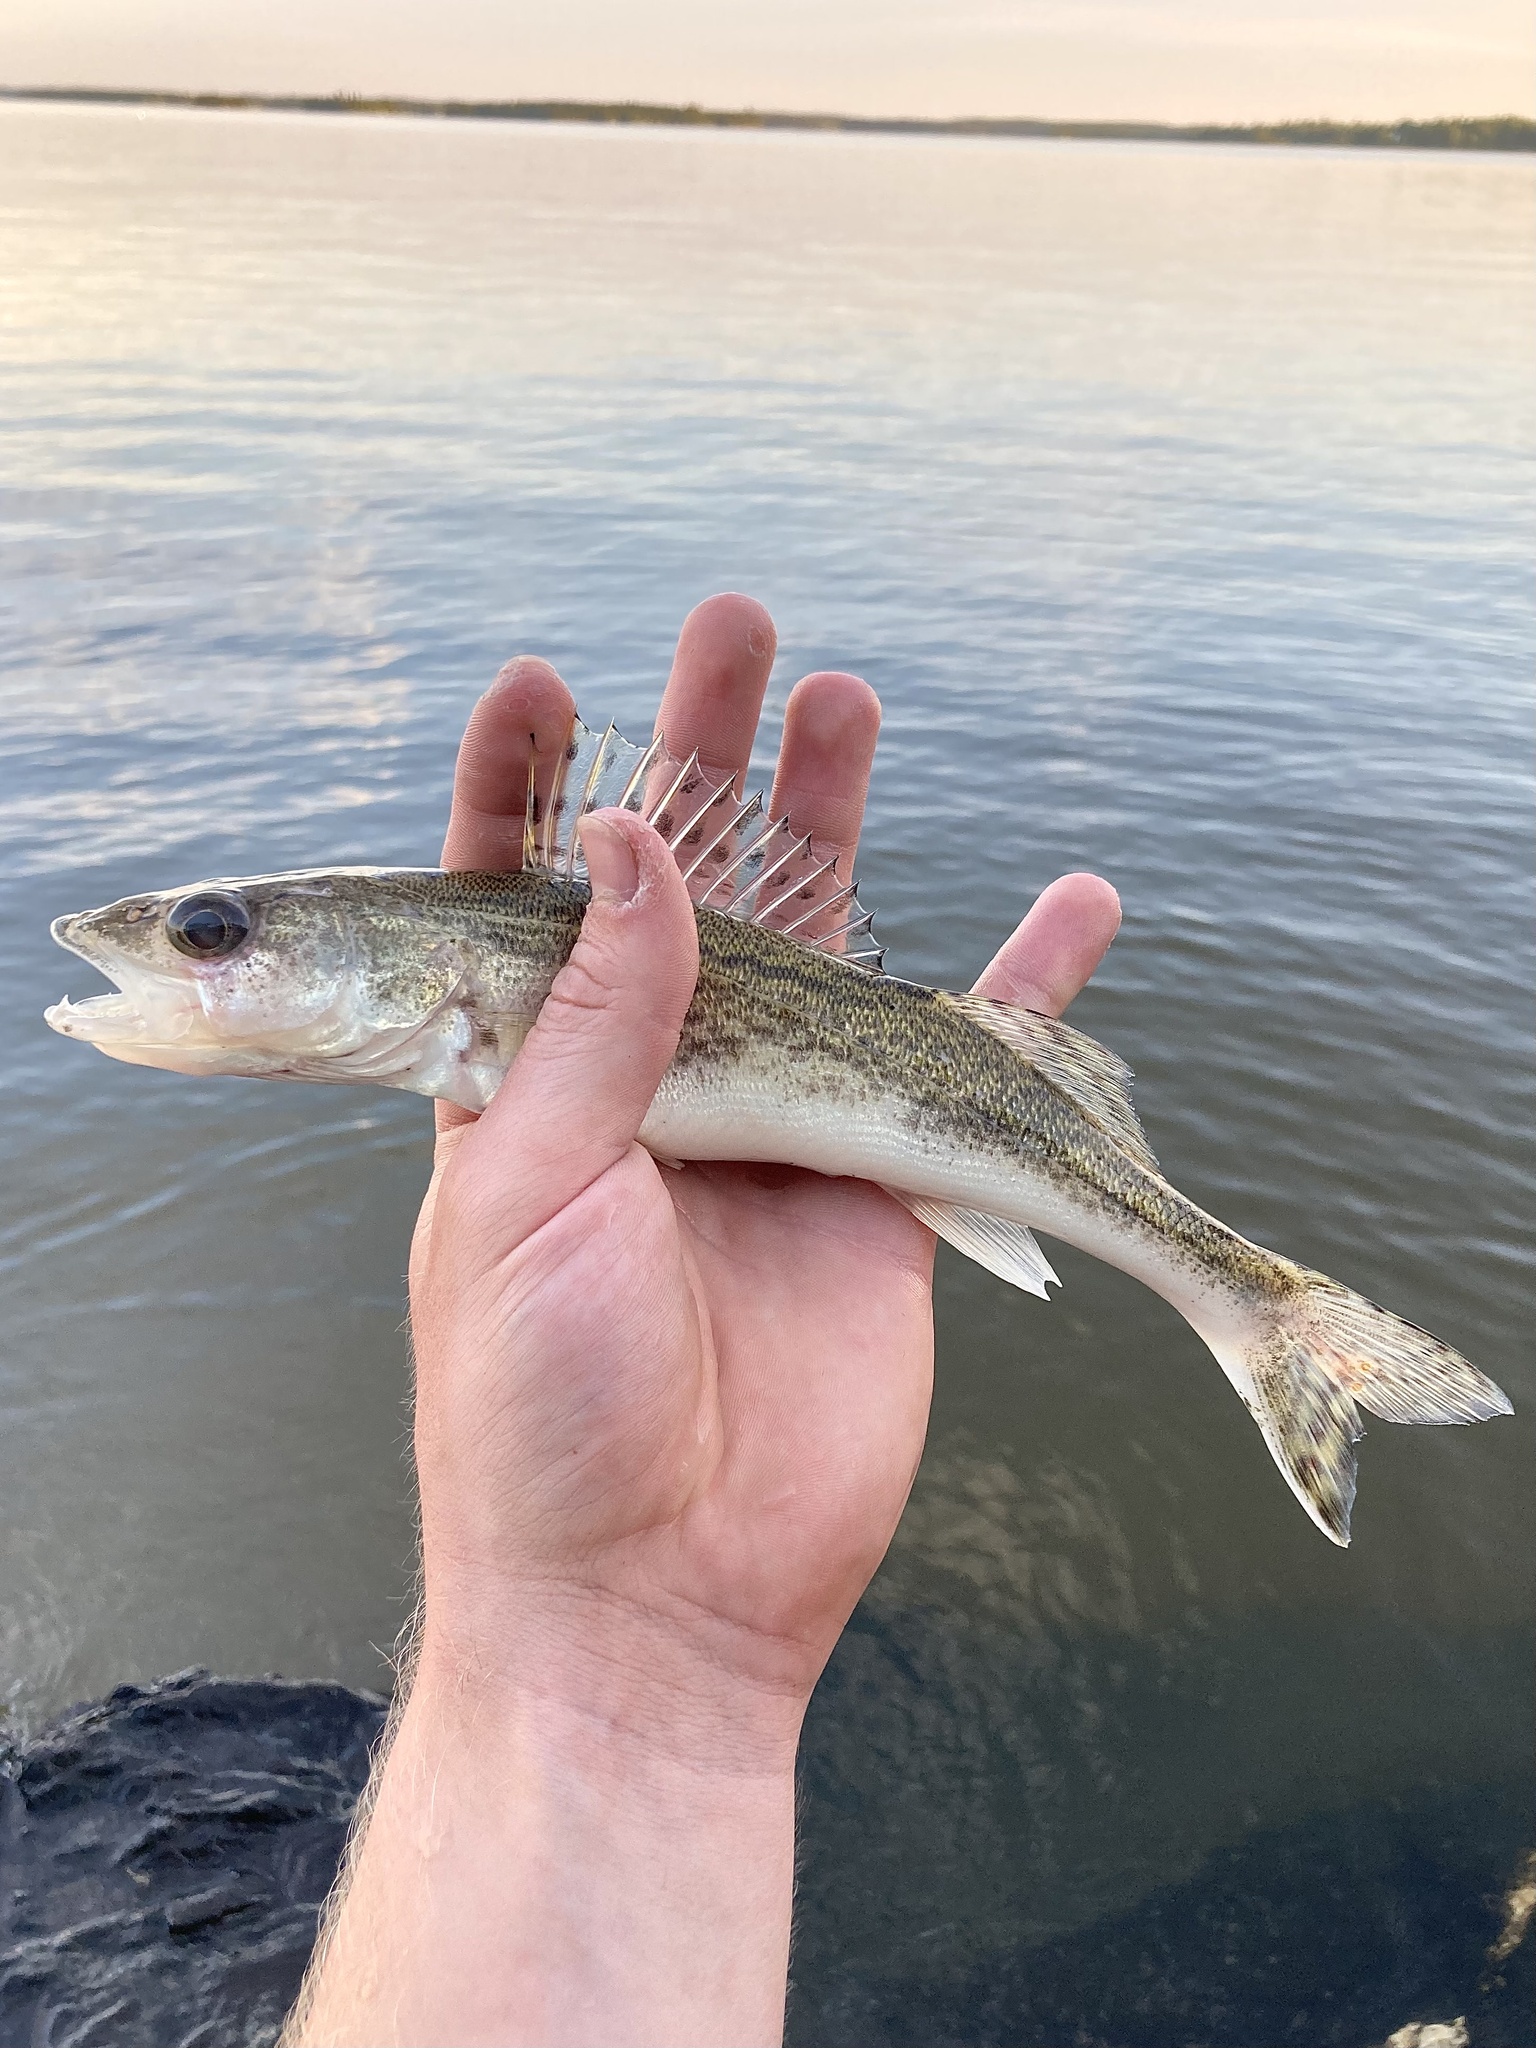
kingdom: Animalia
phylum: Chordata
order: Perciformes
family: Percidae
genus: Sander
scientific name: Sander canadensis
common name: Sauger
